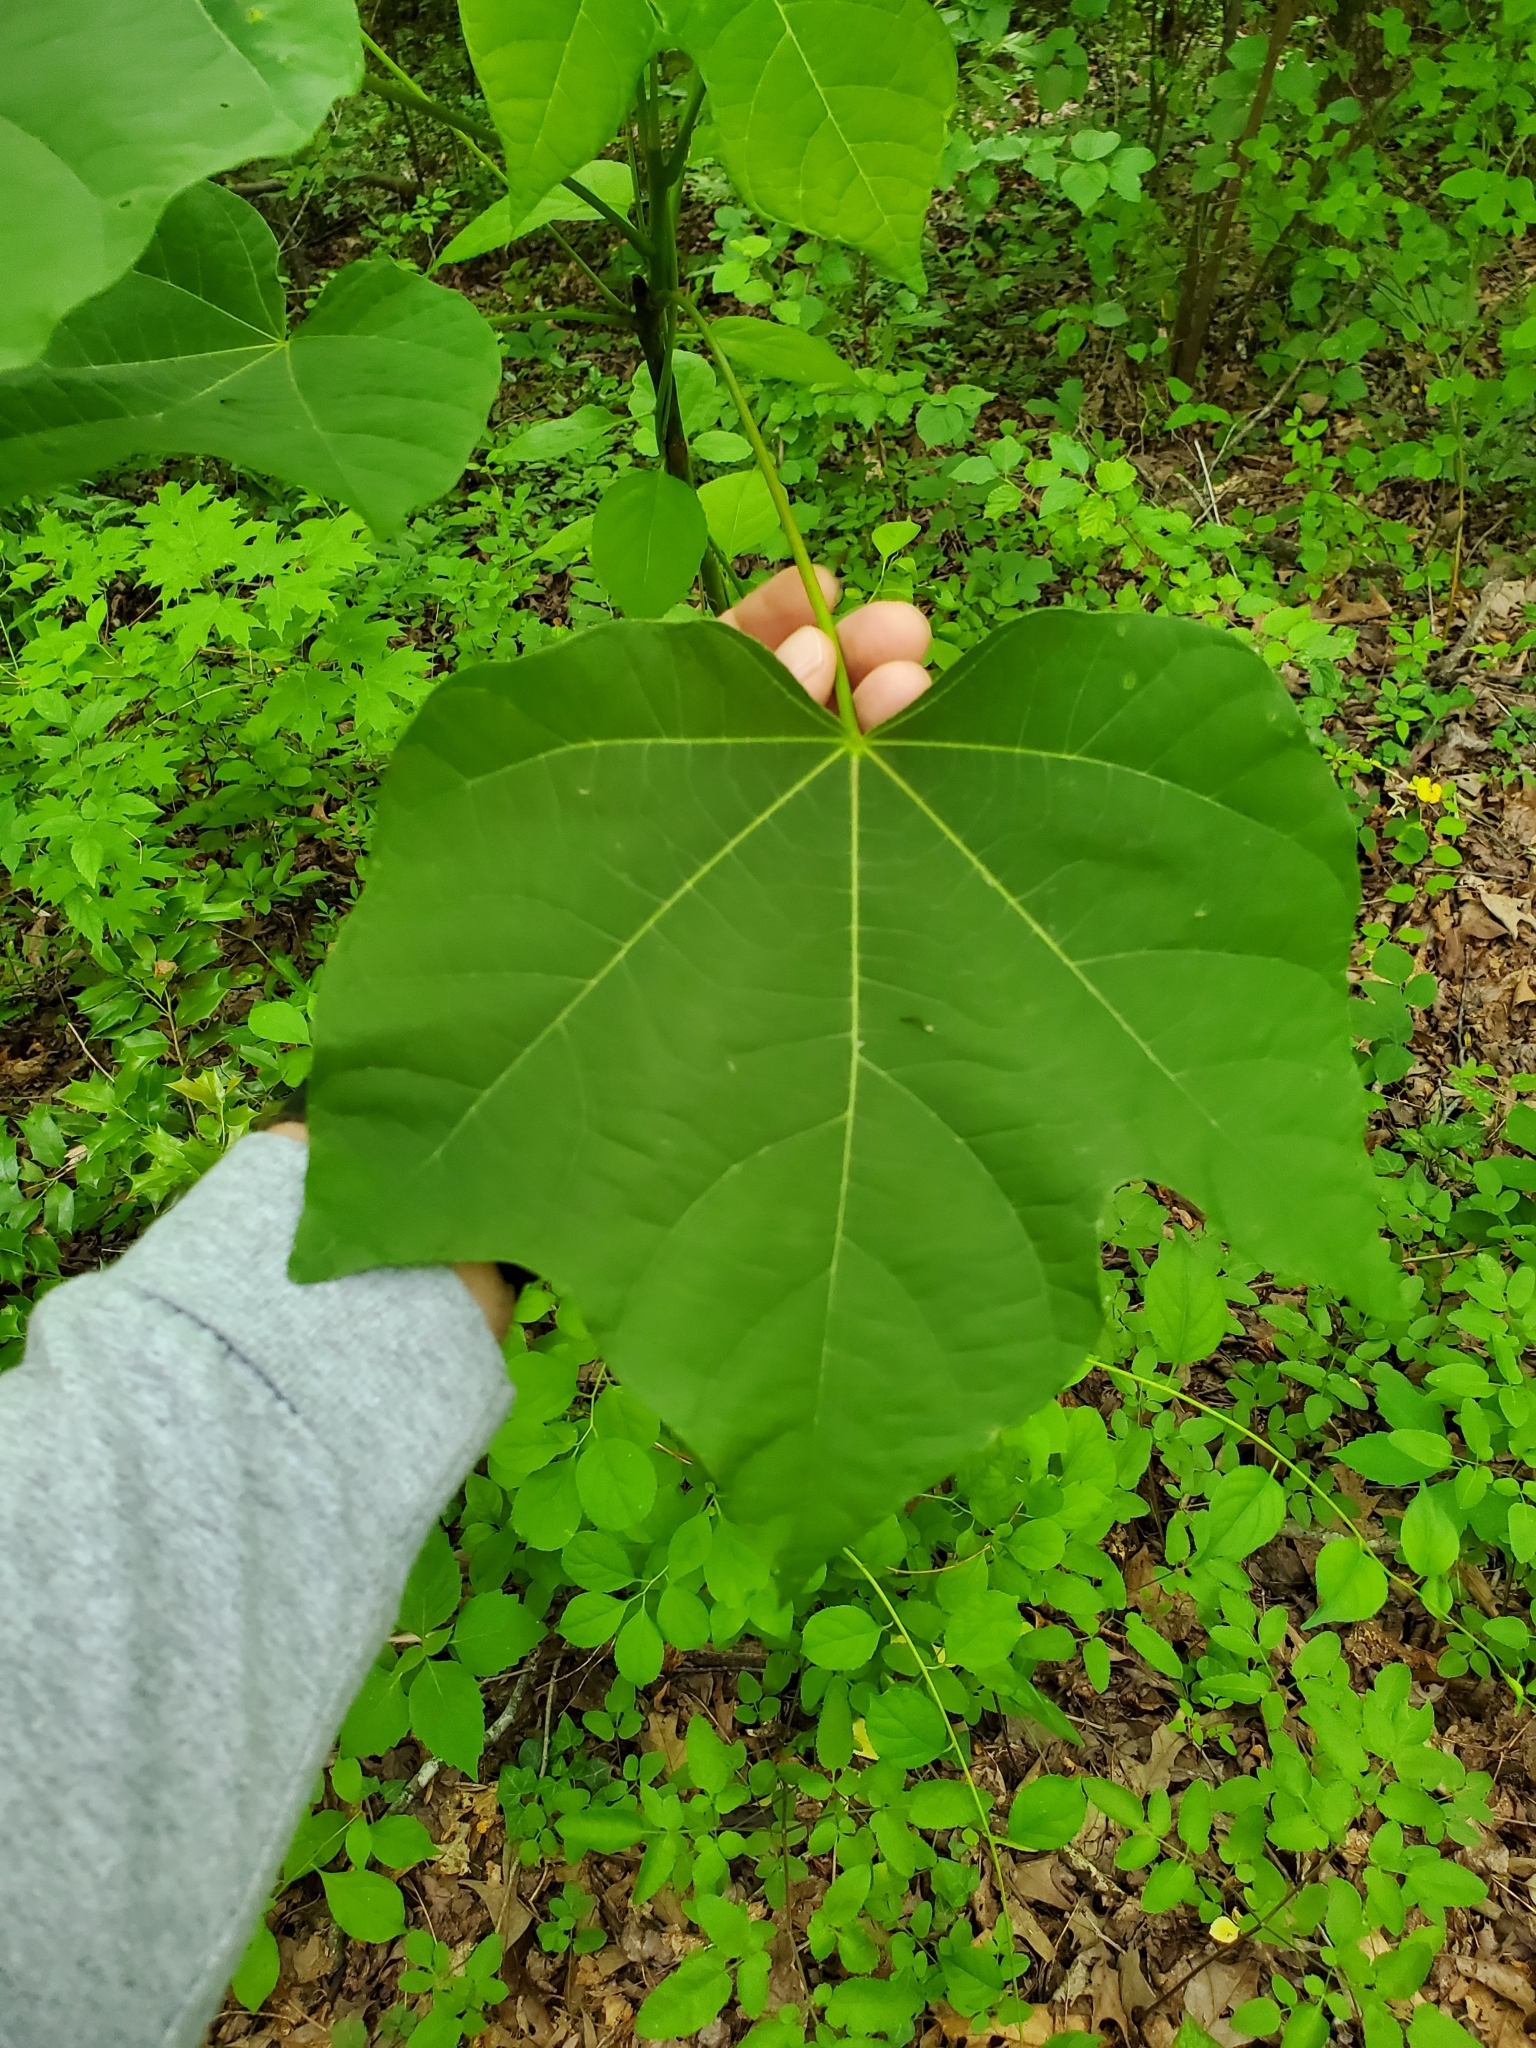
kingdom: Plantae
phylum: Tracheophyta
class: Magnoliopsida
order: Lamiales
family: Paulowniaceae
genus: Paulownia
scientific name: Paulownia tomentosa
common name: Foxglove-tree
